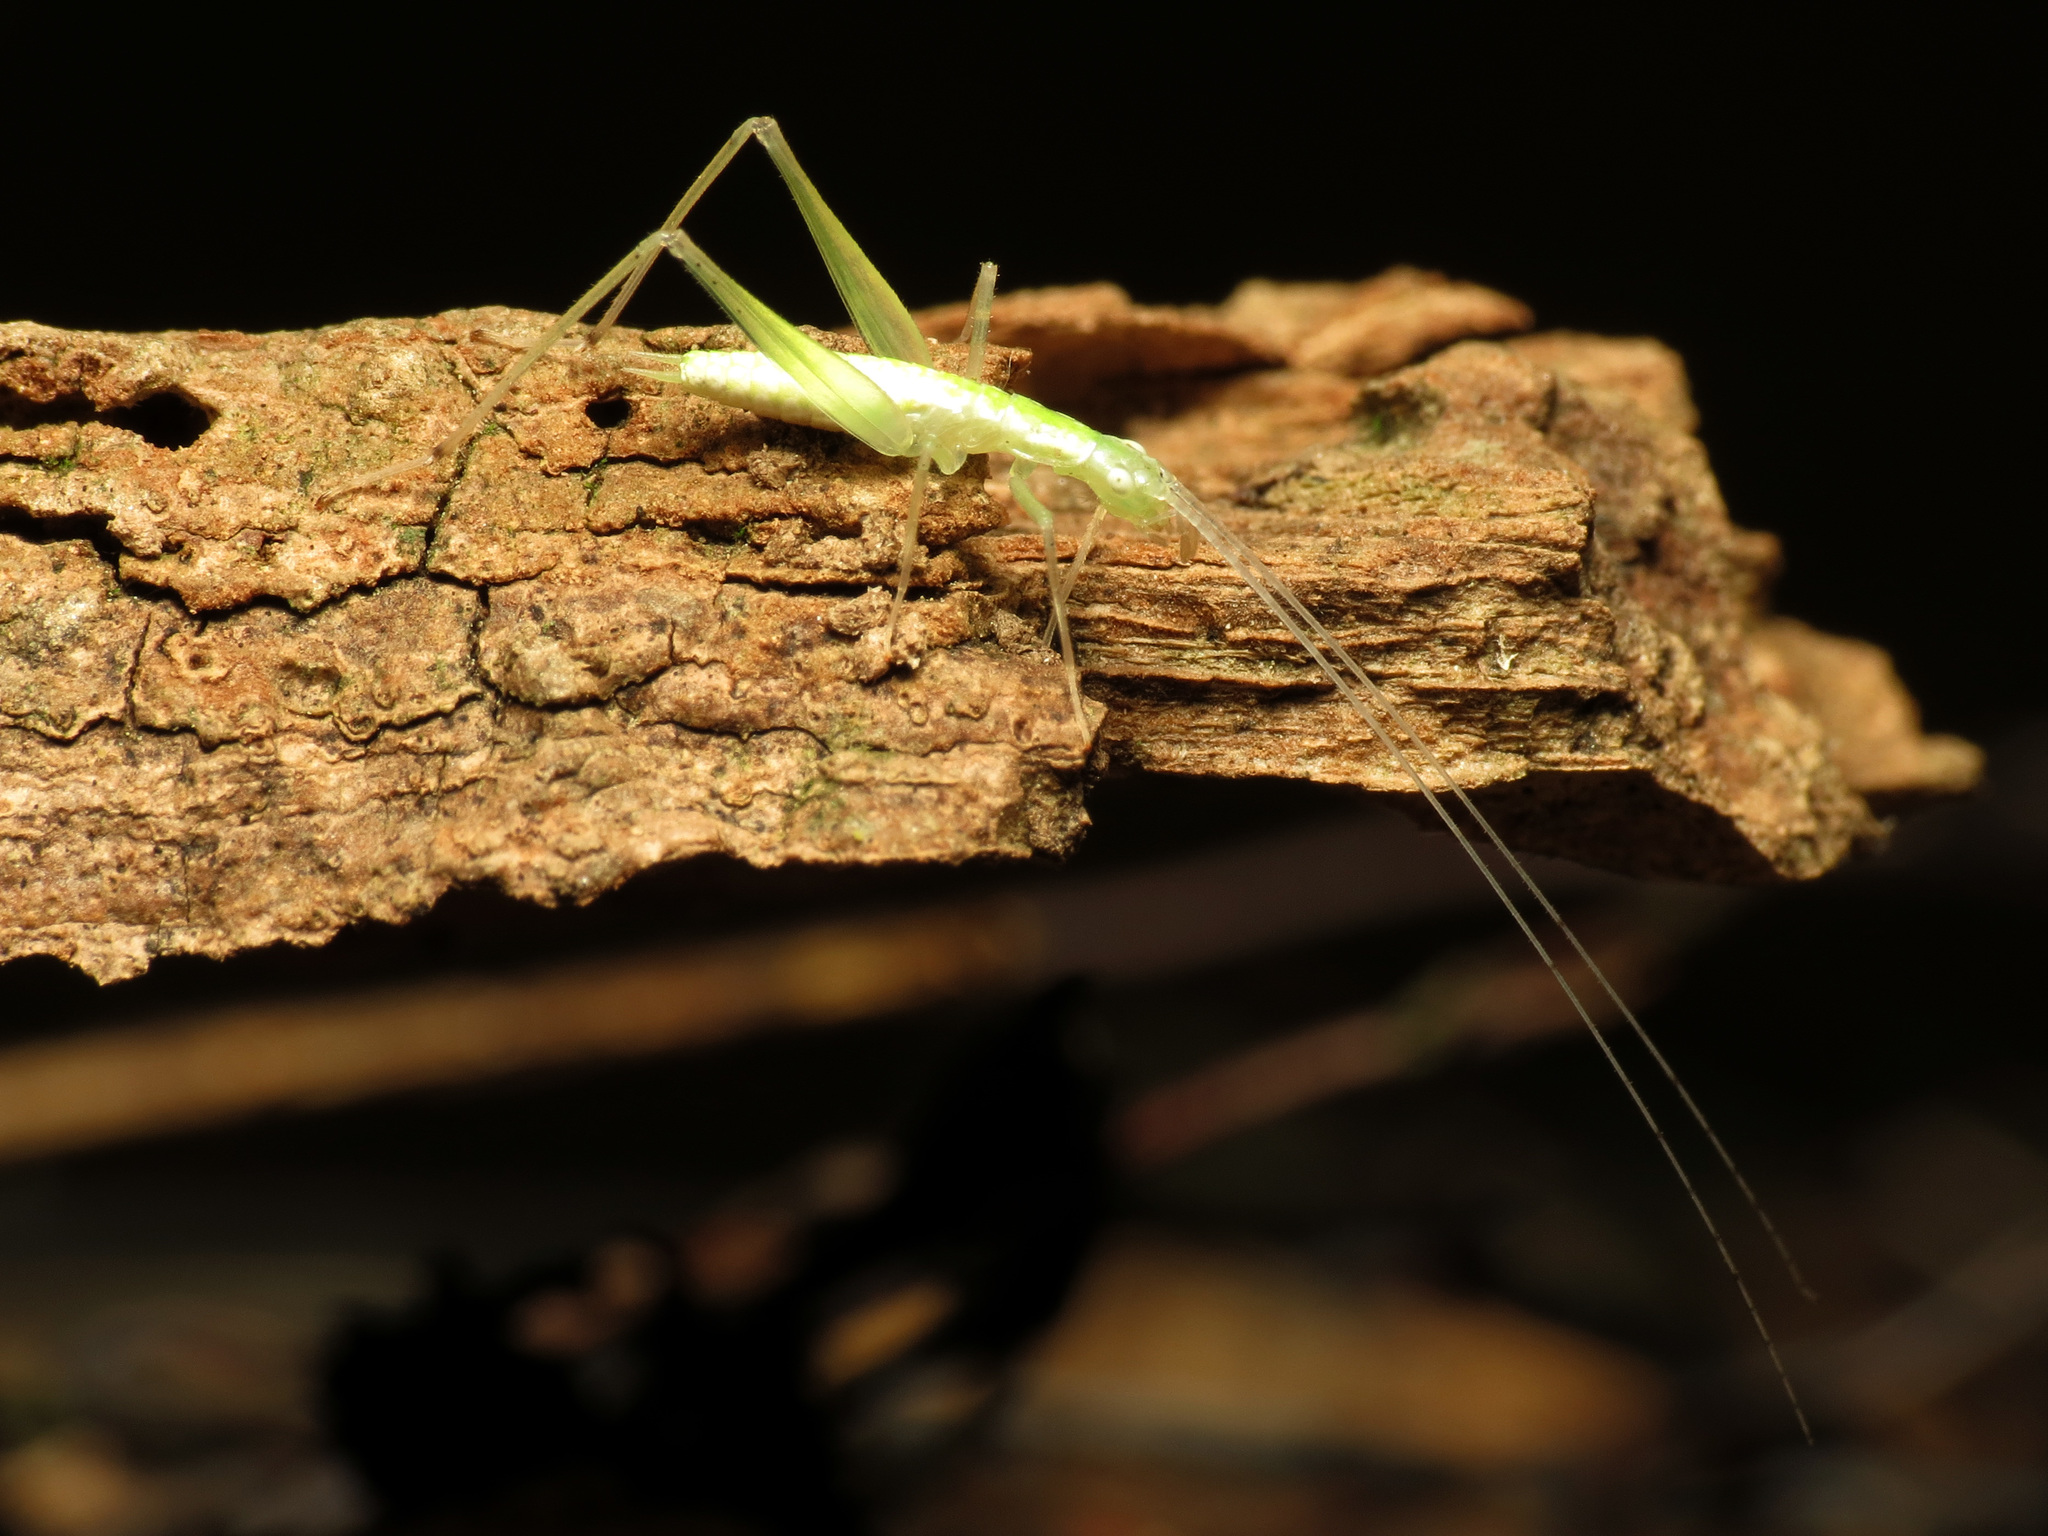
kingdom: Animalia
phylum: Arthropoda
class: Insecta
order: Orthoptera
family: Gryllidae
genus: Oecanthus
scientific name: Oecanthus
